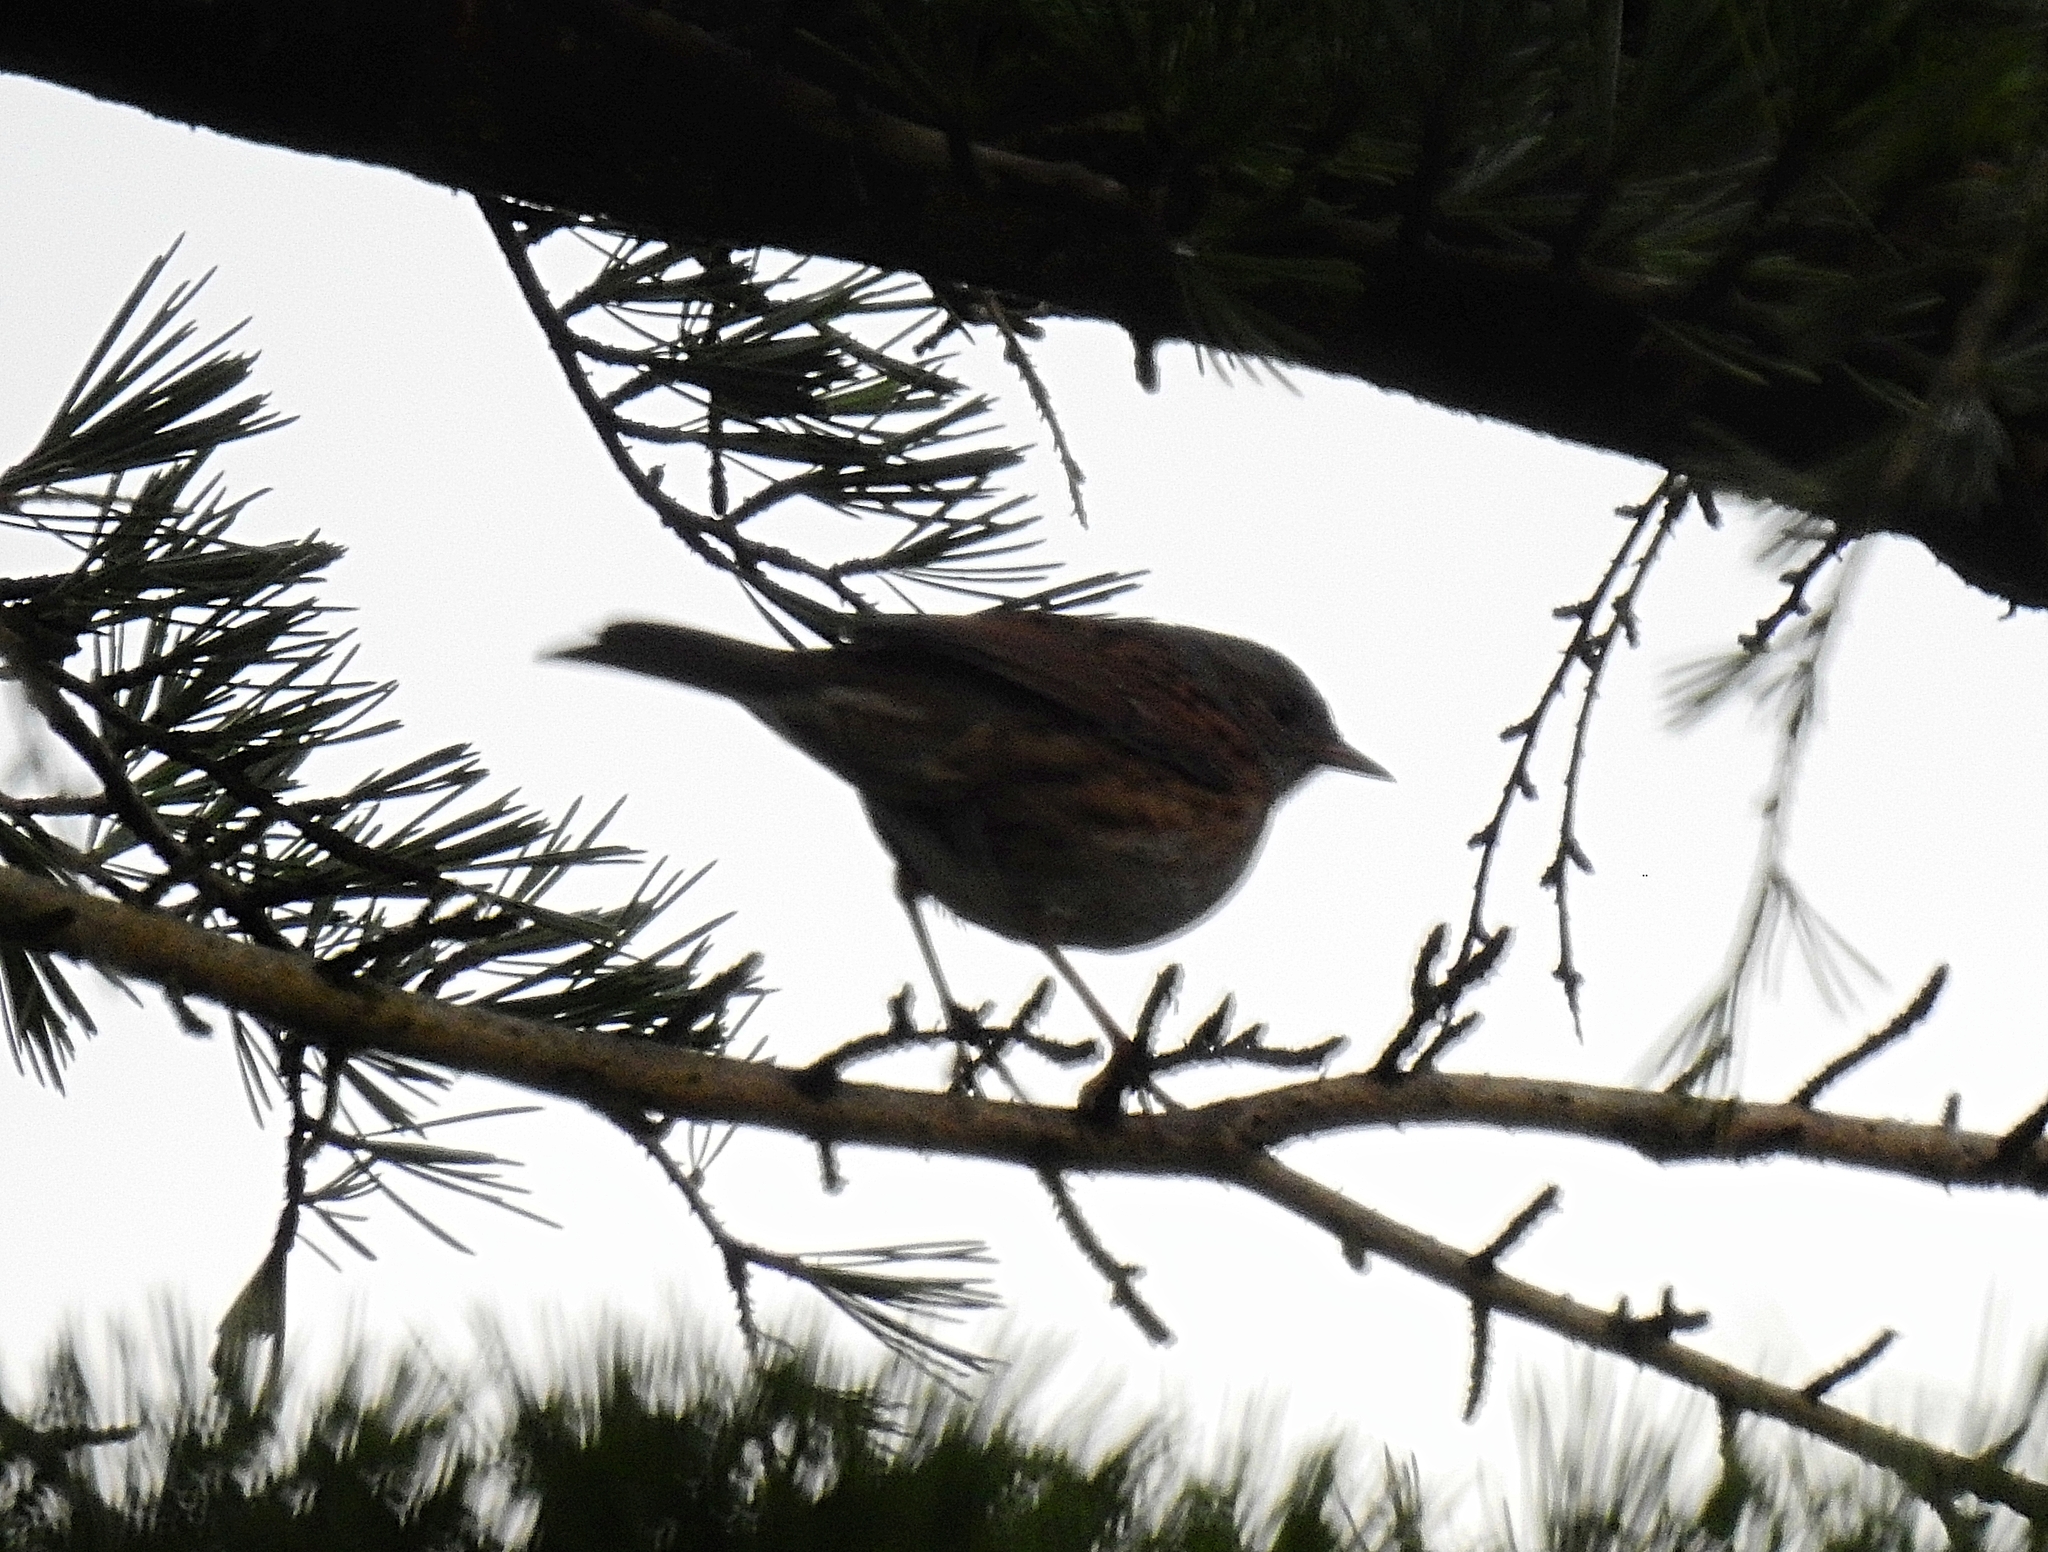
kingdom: Animalia
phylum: Chordata
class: Aves
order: Passeriformes
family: Prunellidae
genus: Prunella
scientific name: Prunella modularis
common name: Dunnock
